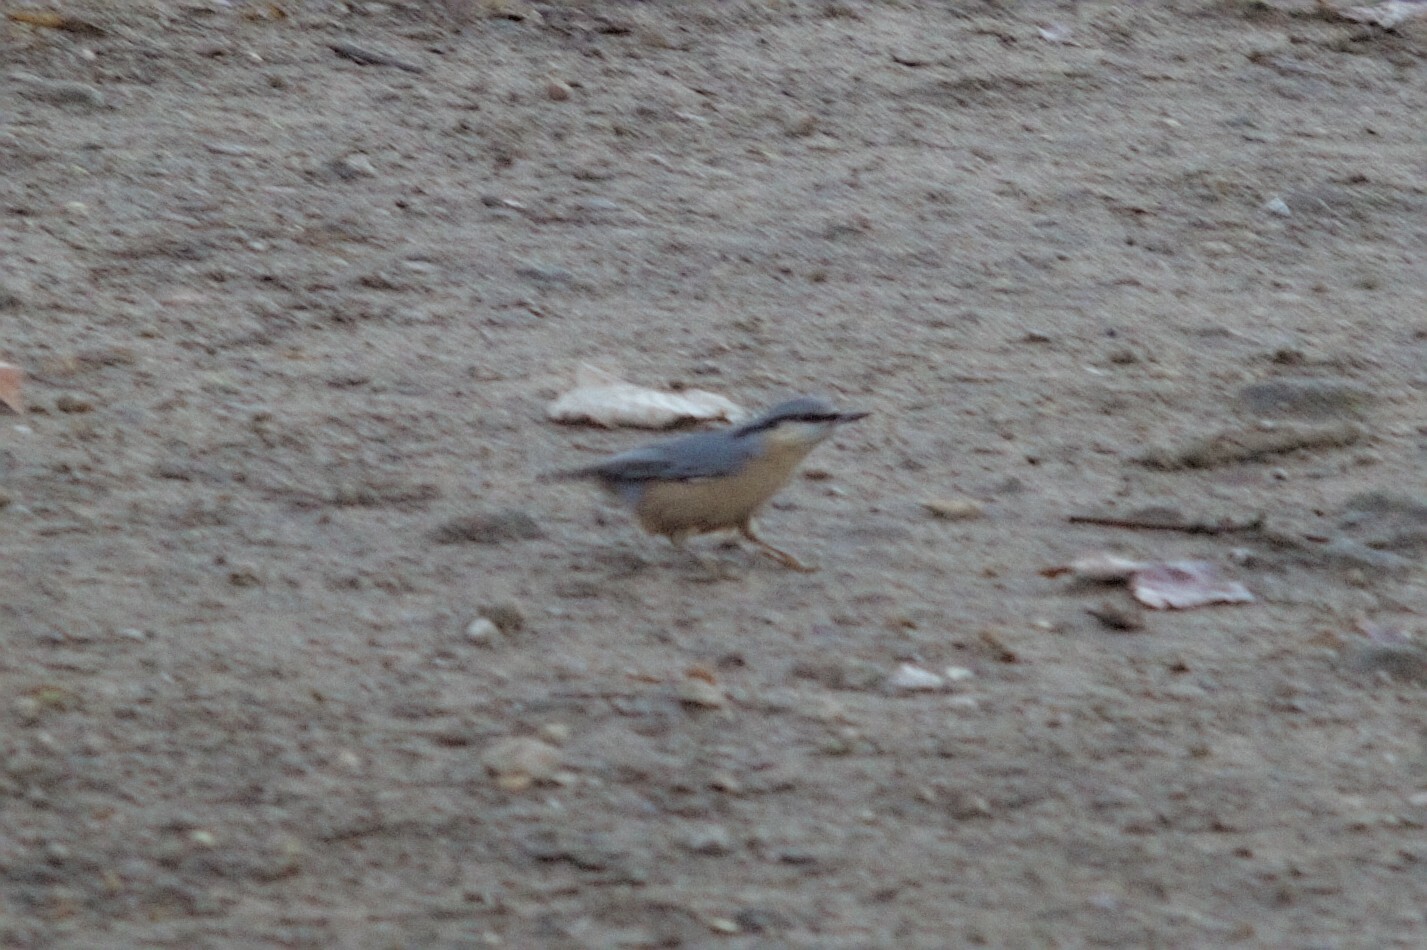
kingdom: Animalia
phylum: Chordata
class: Aves
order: Passeriformes
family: Sittidae
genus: Sitta
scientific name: Sitta europaea
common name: Eurasian nuthatch
